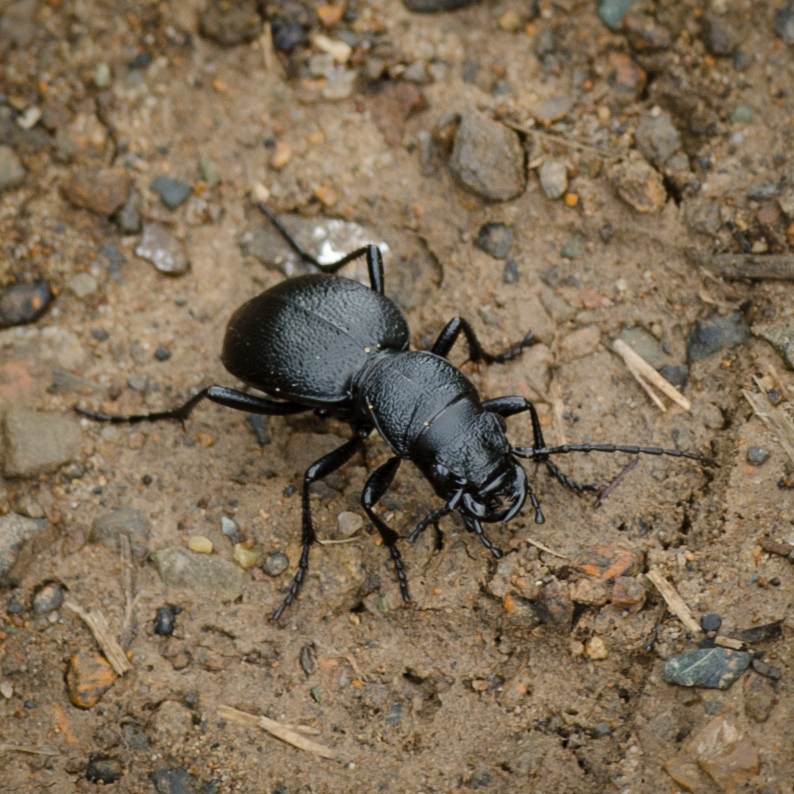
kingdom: Animalia
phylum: Arthropoda
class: Insecta
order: Coleoptera
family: Carabidae
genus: Omus
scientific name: Omus californicus
